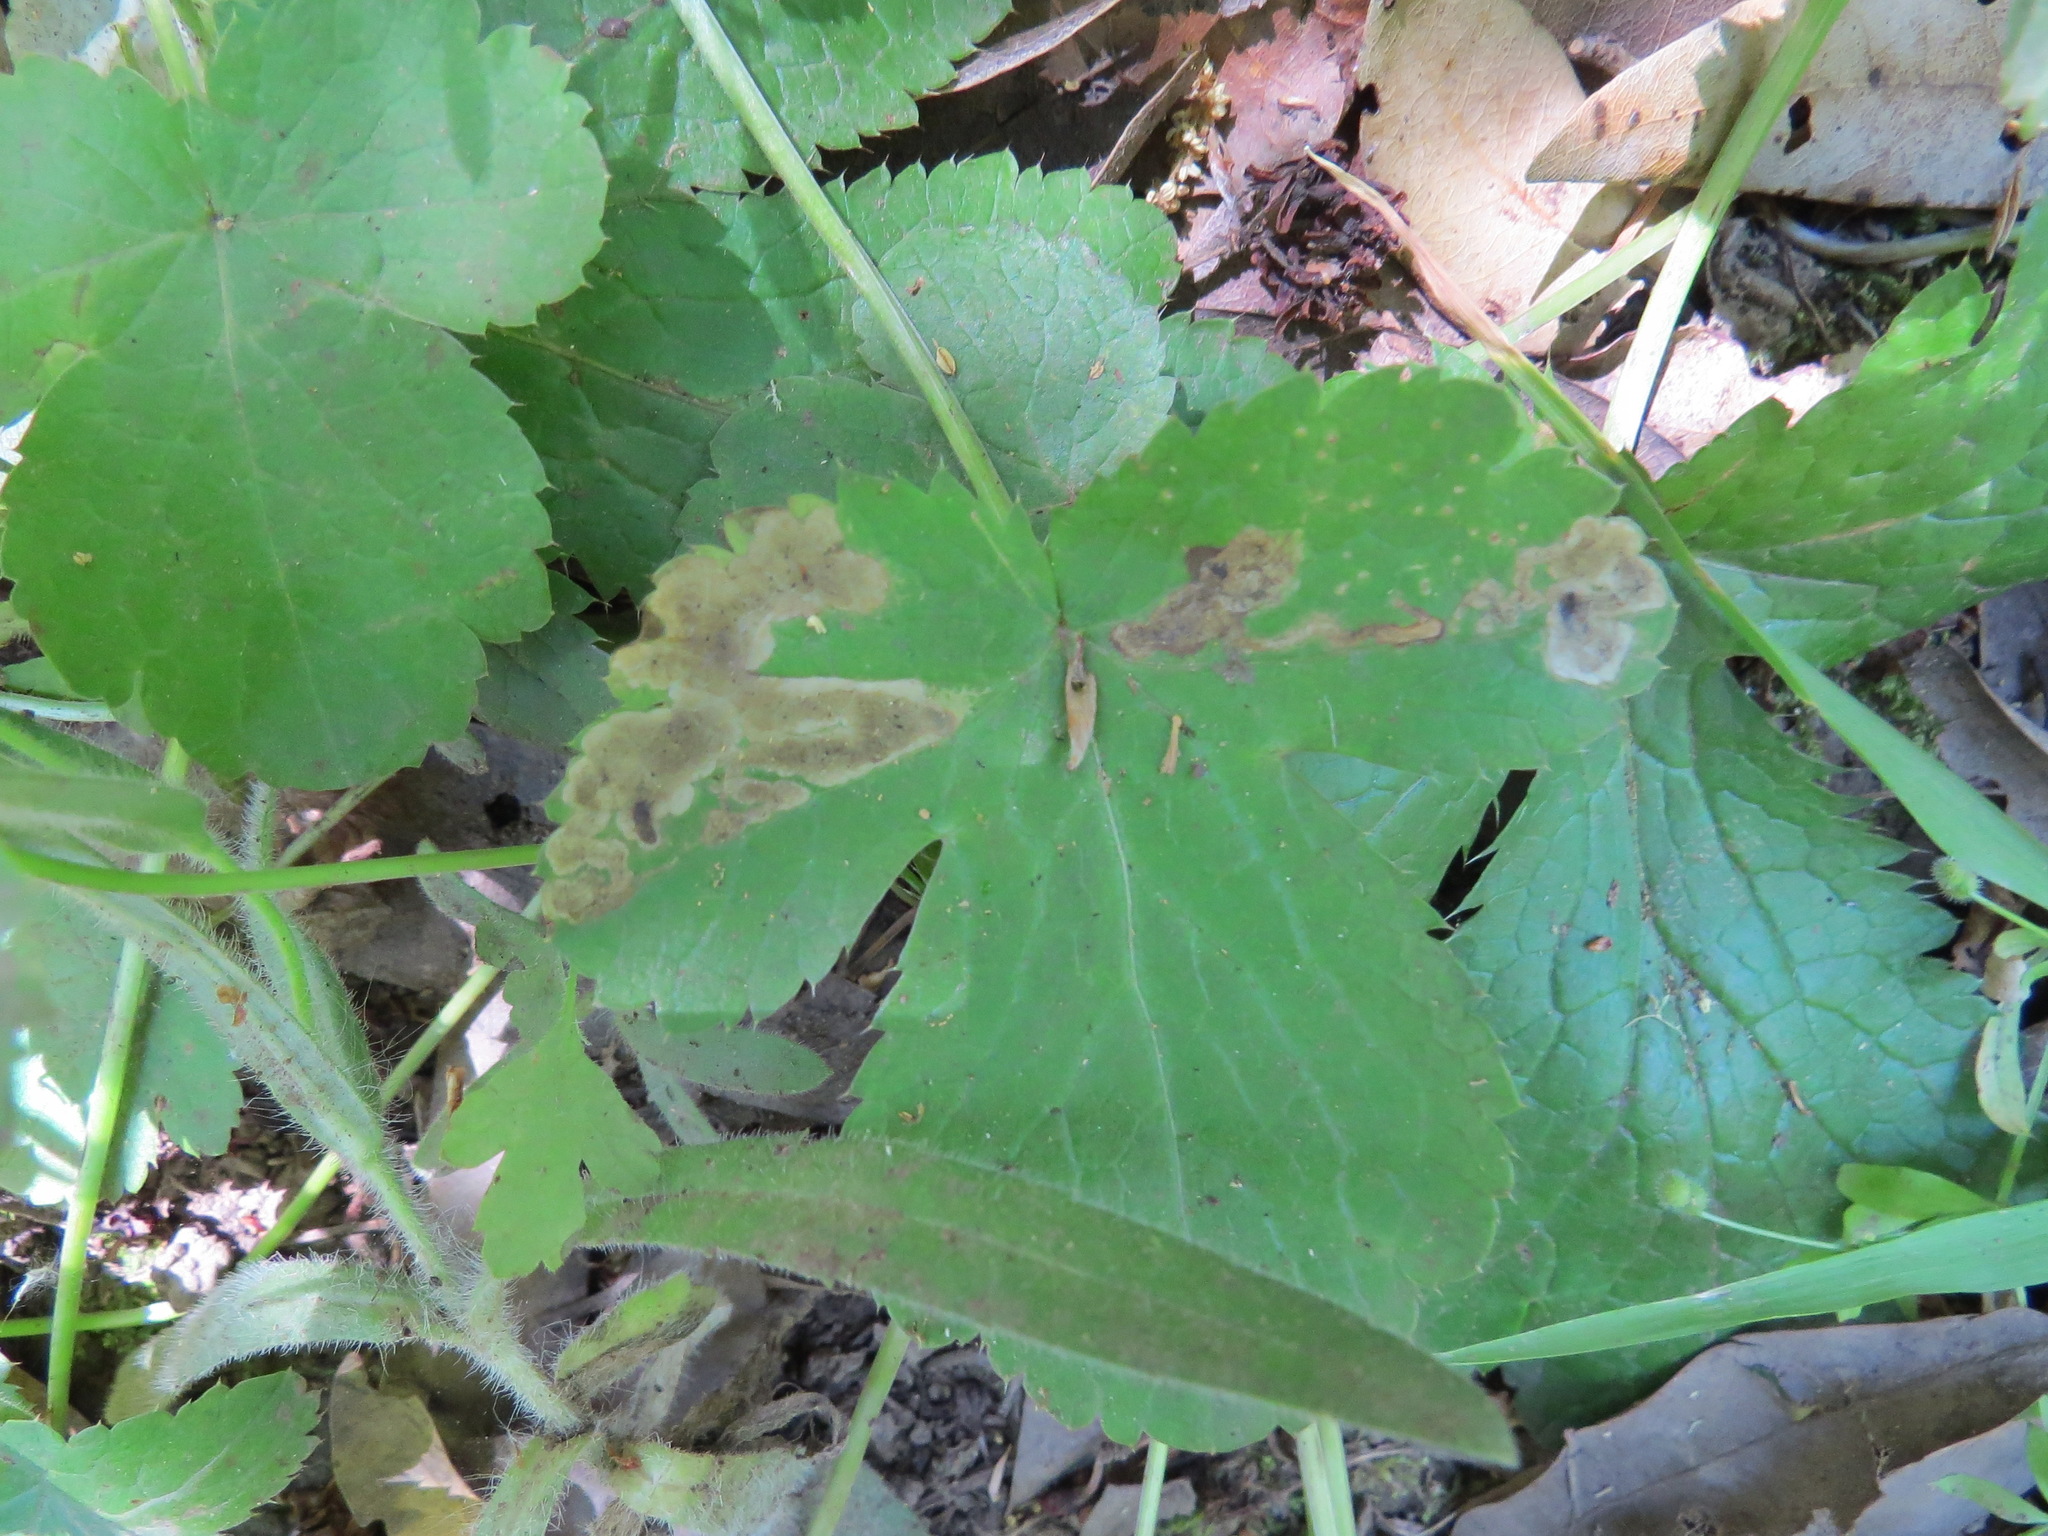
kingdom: Animalia
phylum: Arthropoda
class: Insecta
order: Diptera
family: Agromyzidae
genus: Phytomyza
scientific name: Phytomyza saniculae
